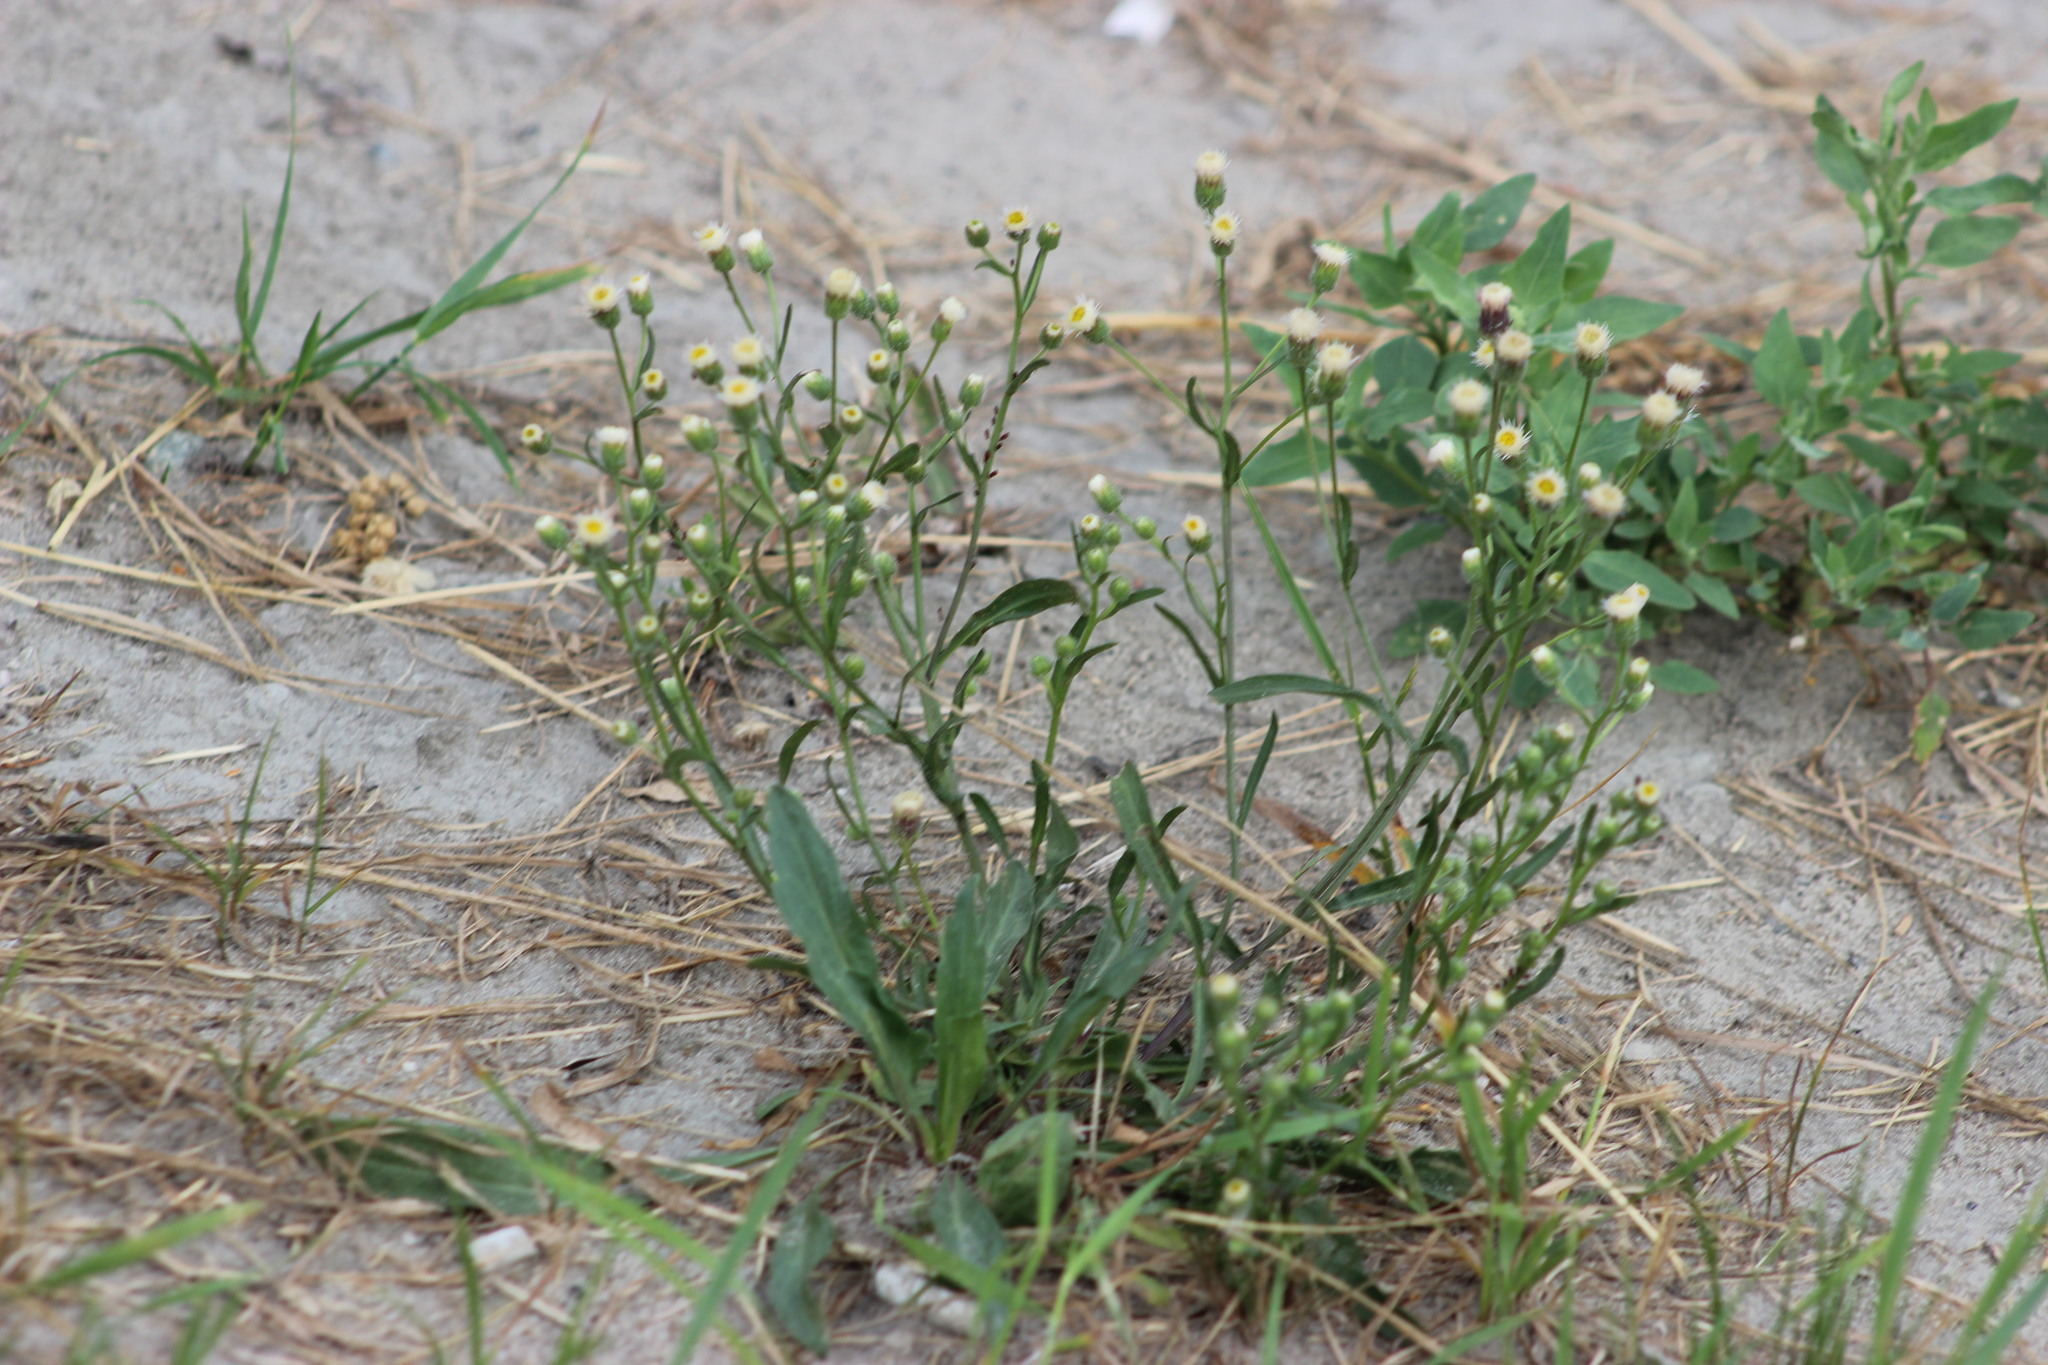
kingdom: Plantae
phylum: Tracheophyta
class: Magnoliopsida
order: Asterales
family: Asteraceae
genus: Erigeron
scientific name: Erigeron
